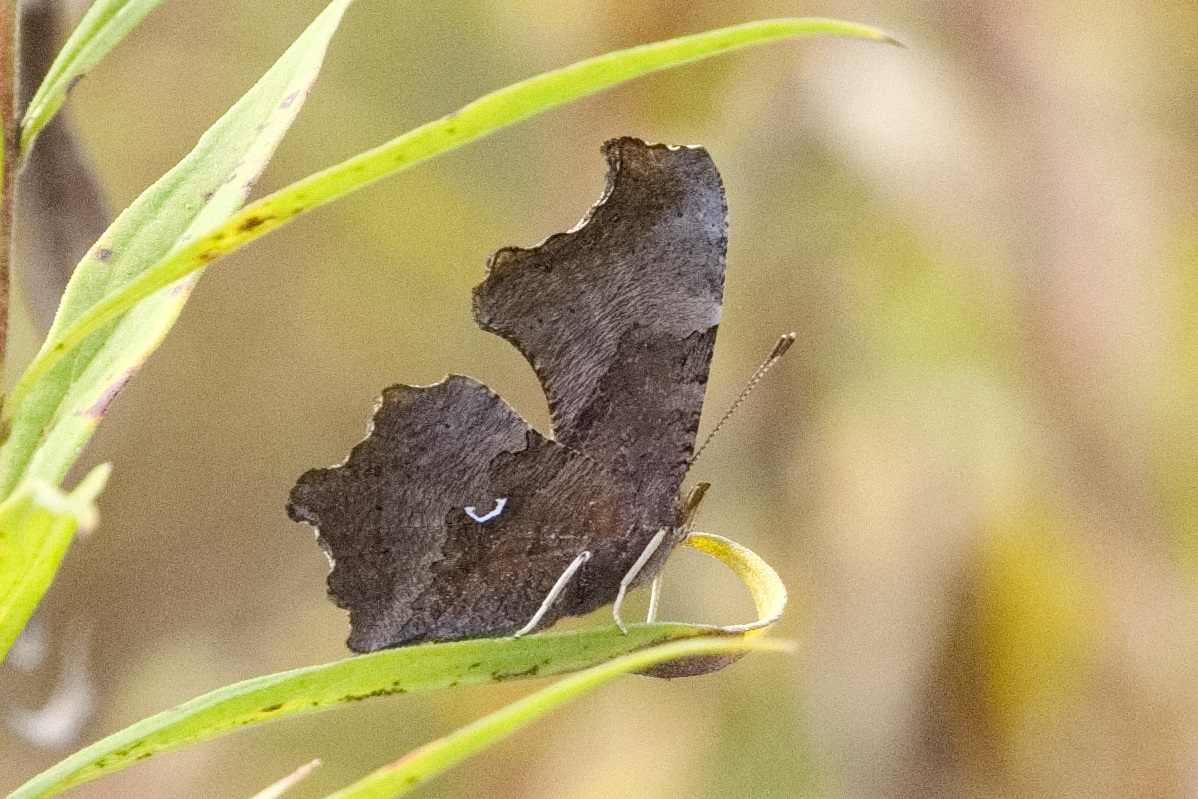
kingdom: Animalia
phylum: Arthropoda
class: Insecta
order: Lepidoptera
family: Nymphalidae
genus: Polygonia
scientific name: Polygonia comma
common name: Eastern comma
